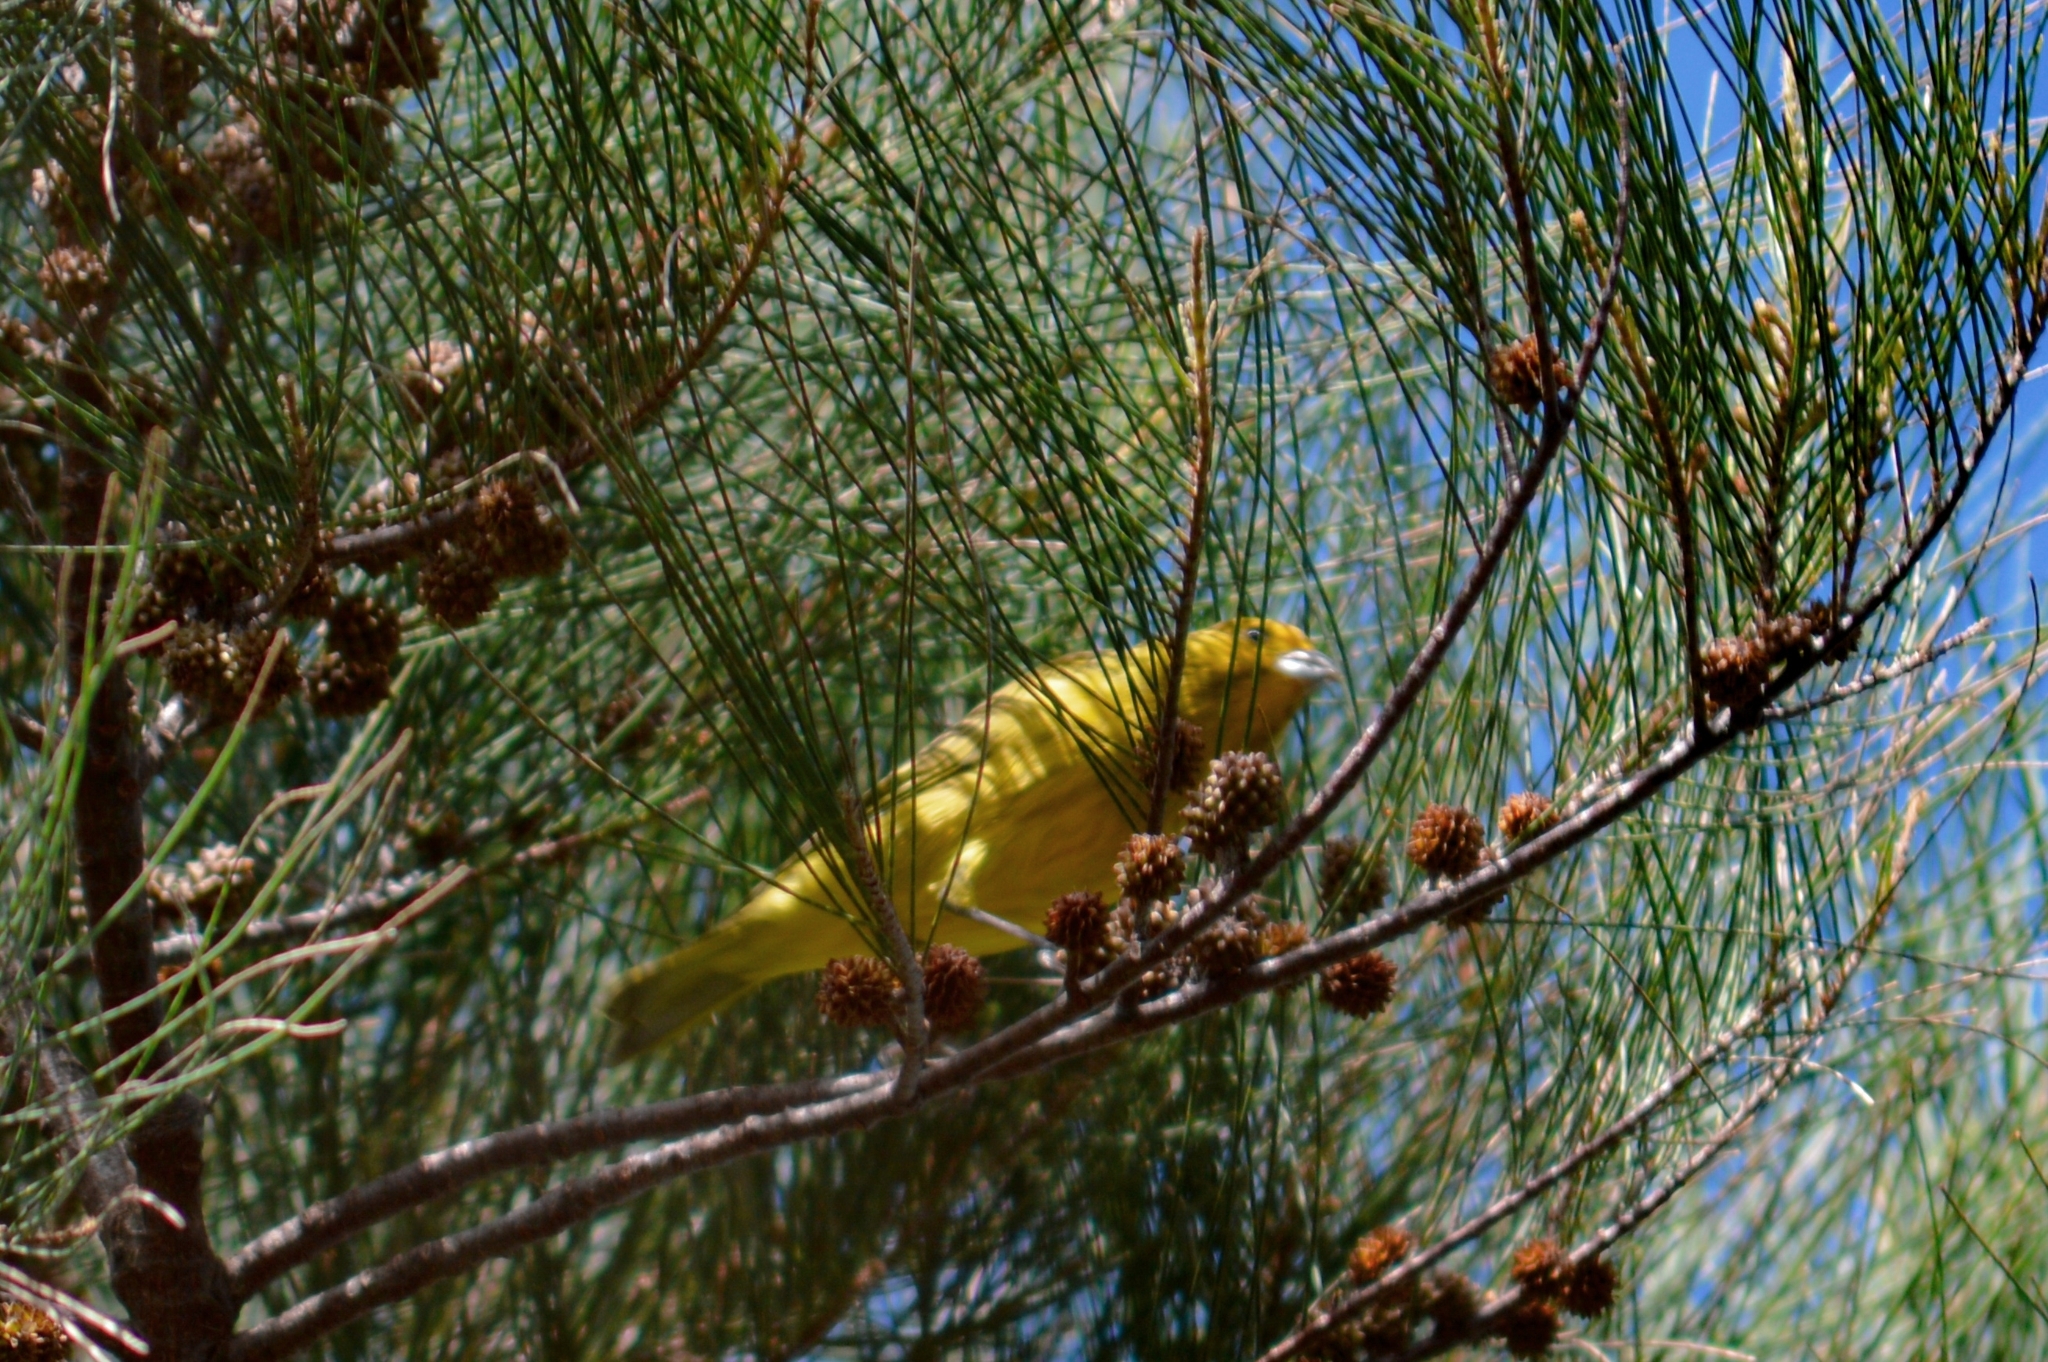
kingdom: Animalia
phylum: Chordata
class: Aves
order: Passeriformes
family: Thraupidae
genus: Sicalis
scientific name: Sicalis flaveola
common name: Saffron finch
